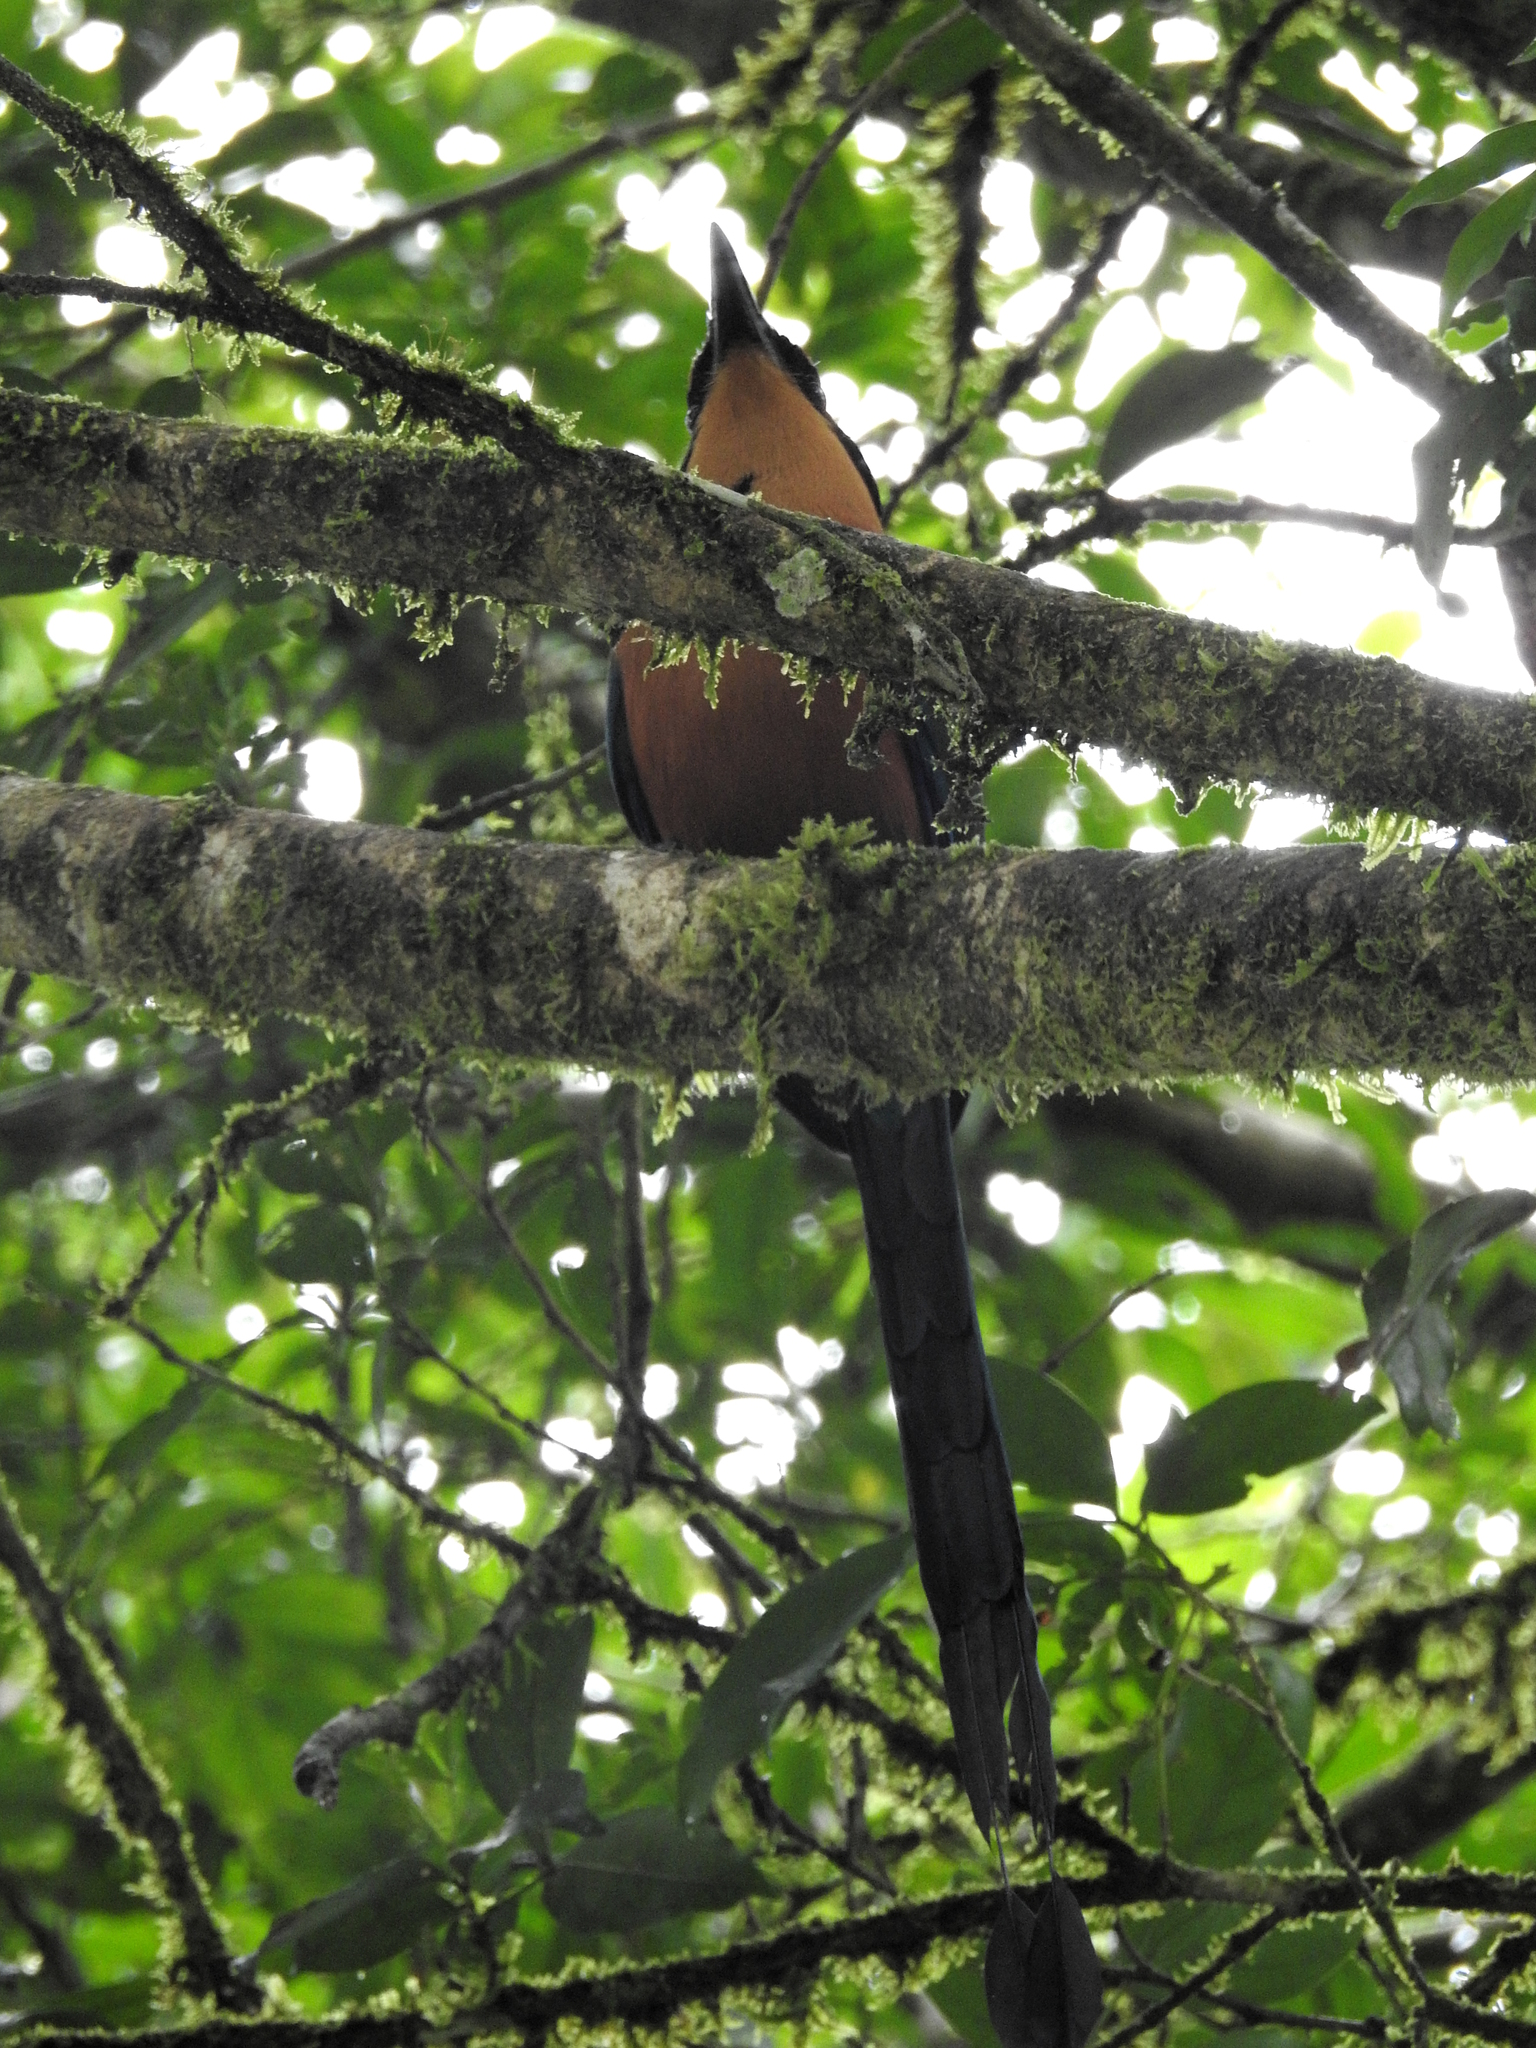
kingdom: Animalia
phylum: Chordata
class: Aves
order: Coraciiformes
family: Momotidae
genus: Baryphthengus
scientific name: Baryphthengus martii
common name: Rufous motmot
